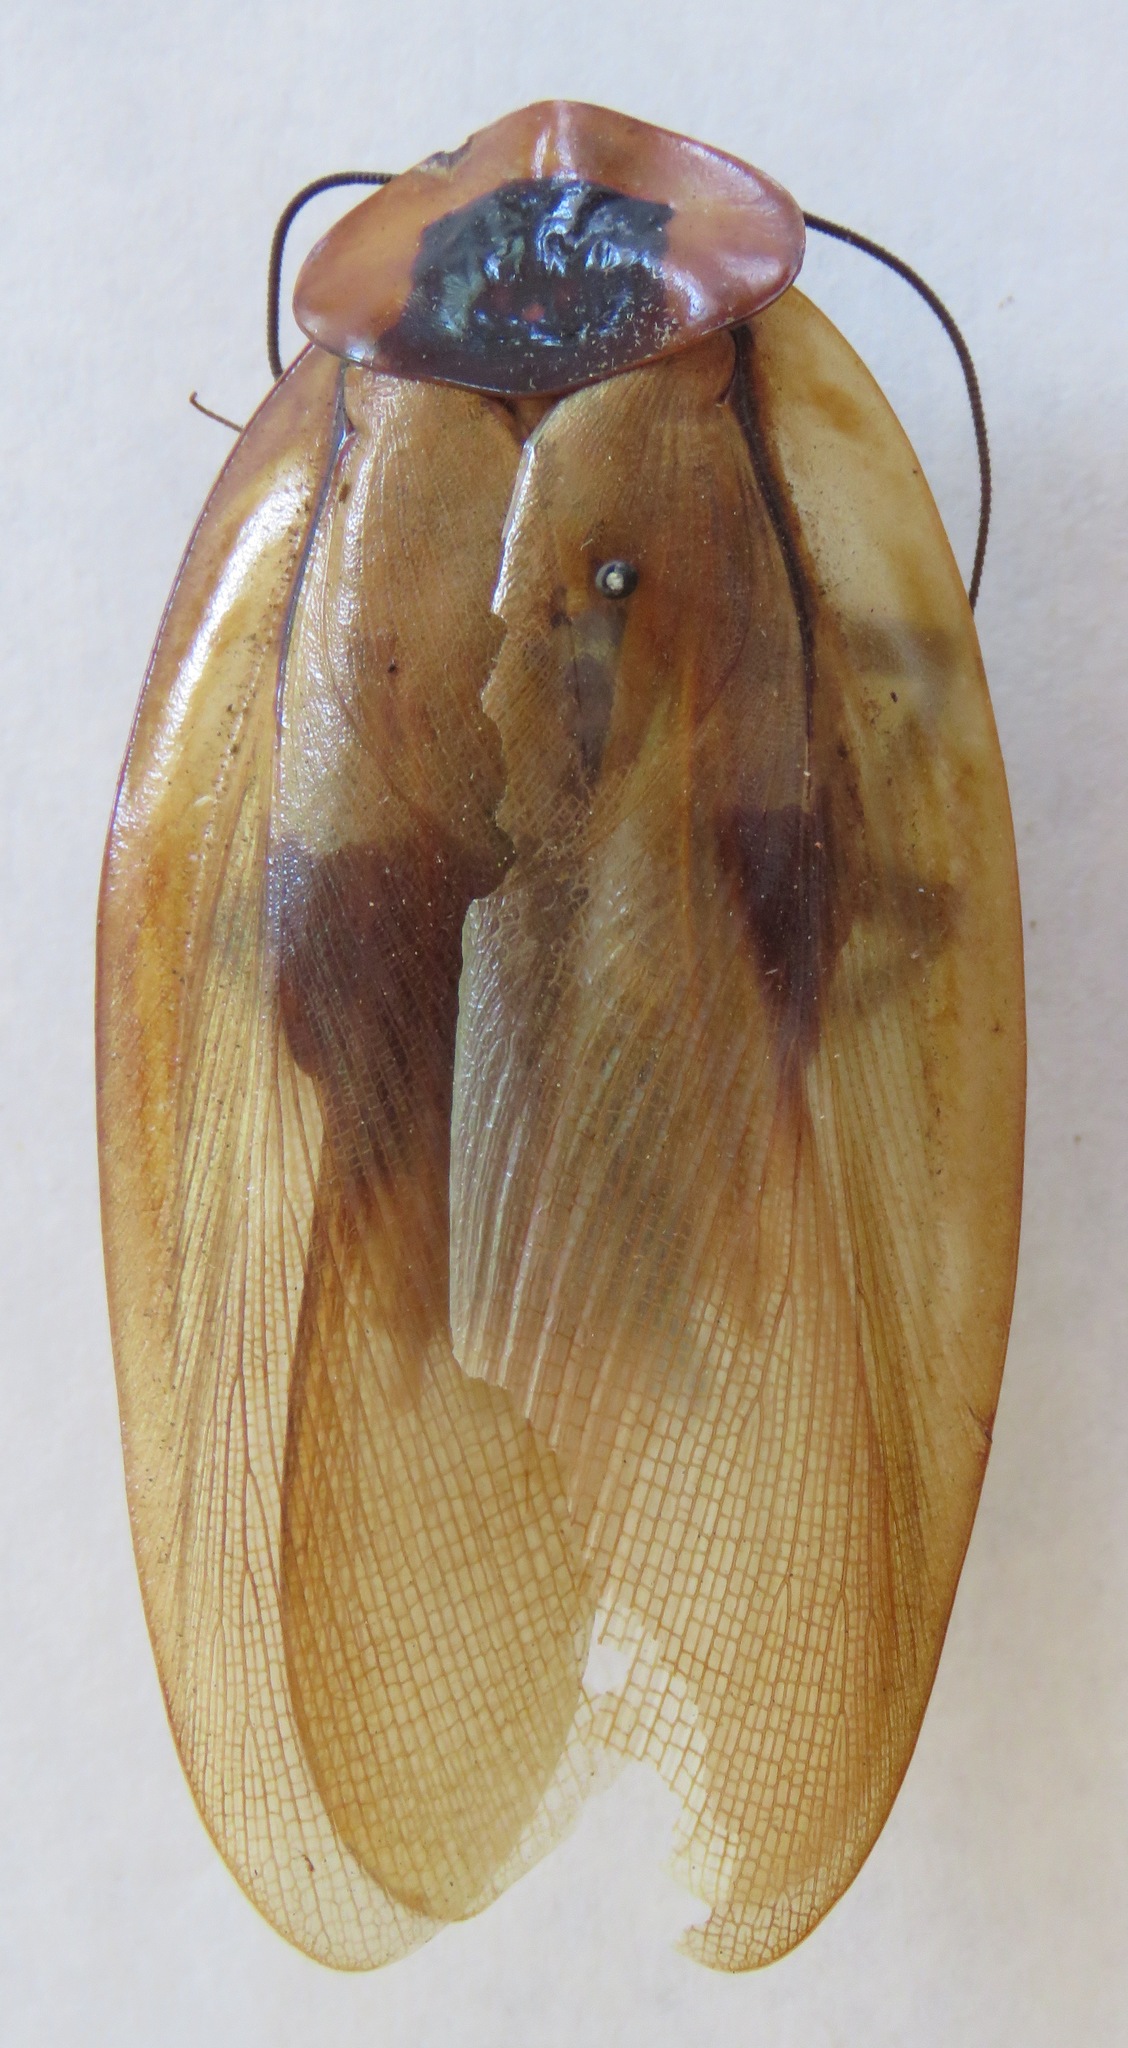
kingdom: Animalia
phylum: Arthropoda
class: Insecta
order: Blattodea
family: Blaberidae
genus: Blaberus
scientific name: Blaberus giganteus
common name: Giant cave cockroach
